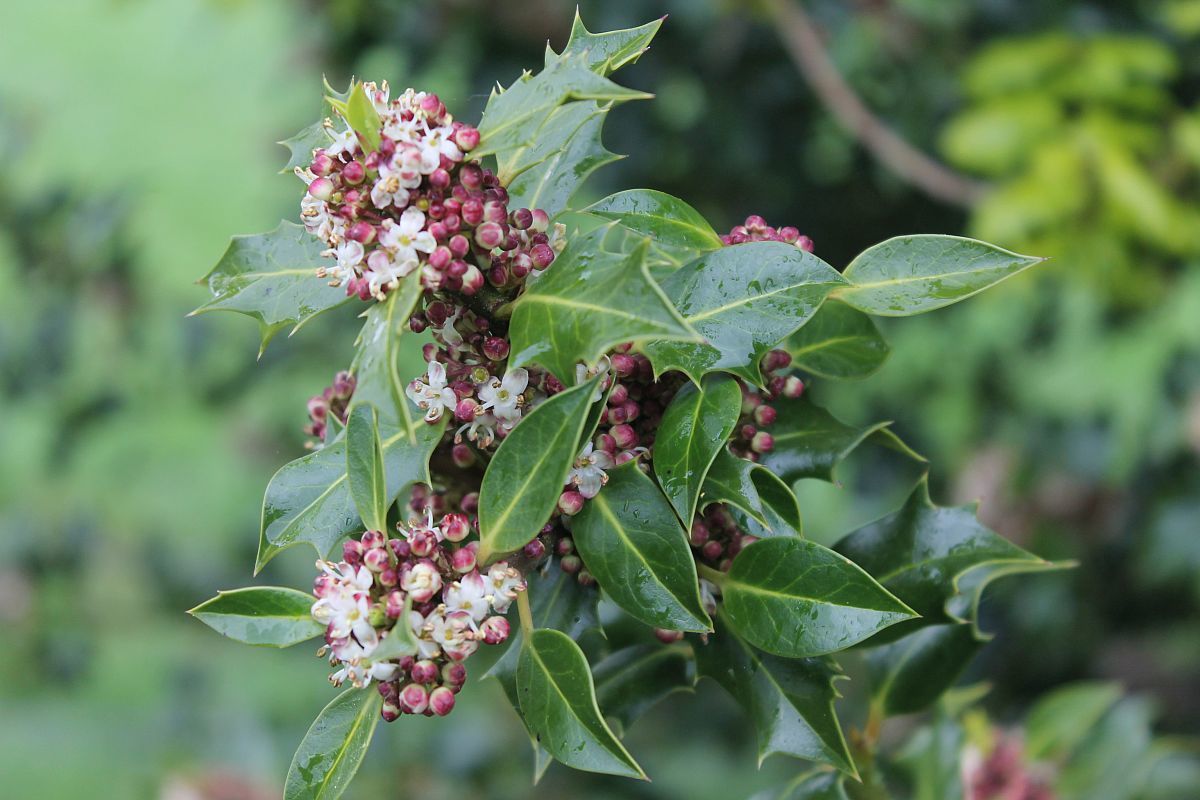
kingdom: Plantae
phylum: Tracheophyta
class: Magnoliopsida
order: Aquifoliales
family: Aquifoliaceae
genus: Ilex
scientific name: Ilex aquifolium
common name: English holly
